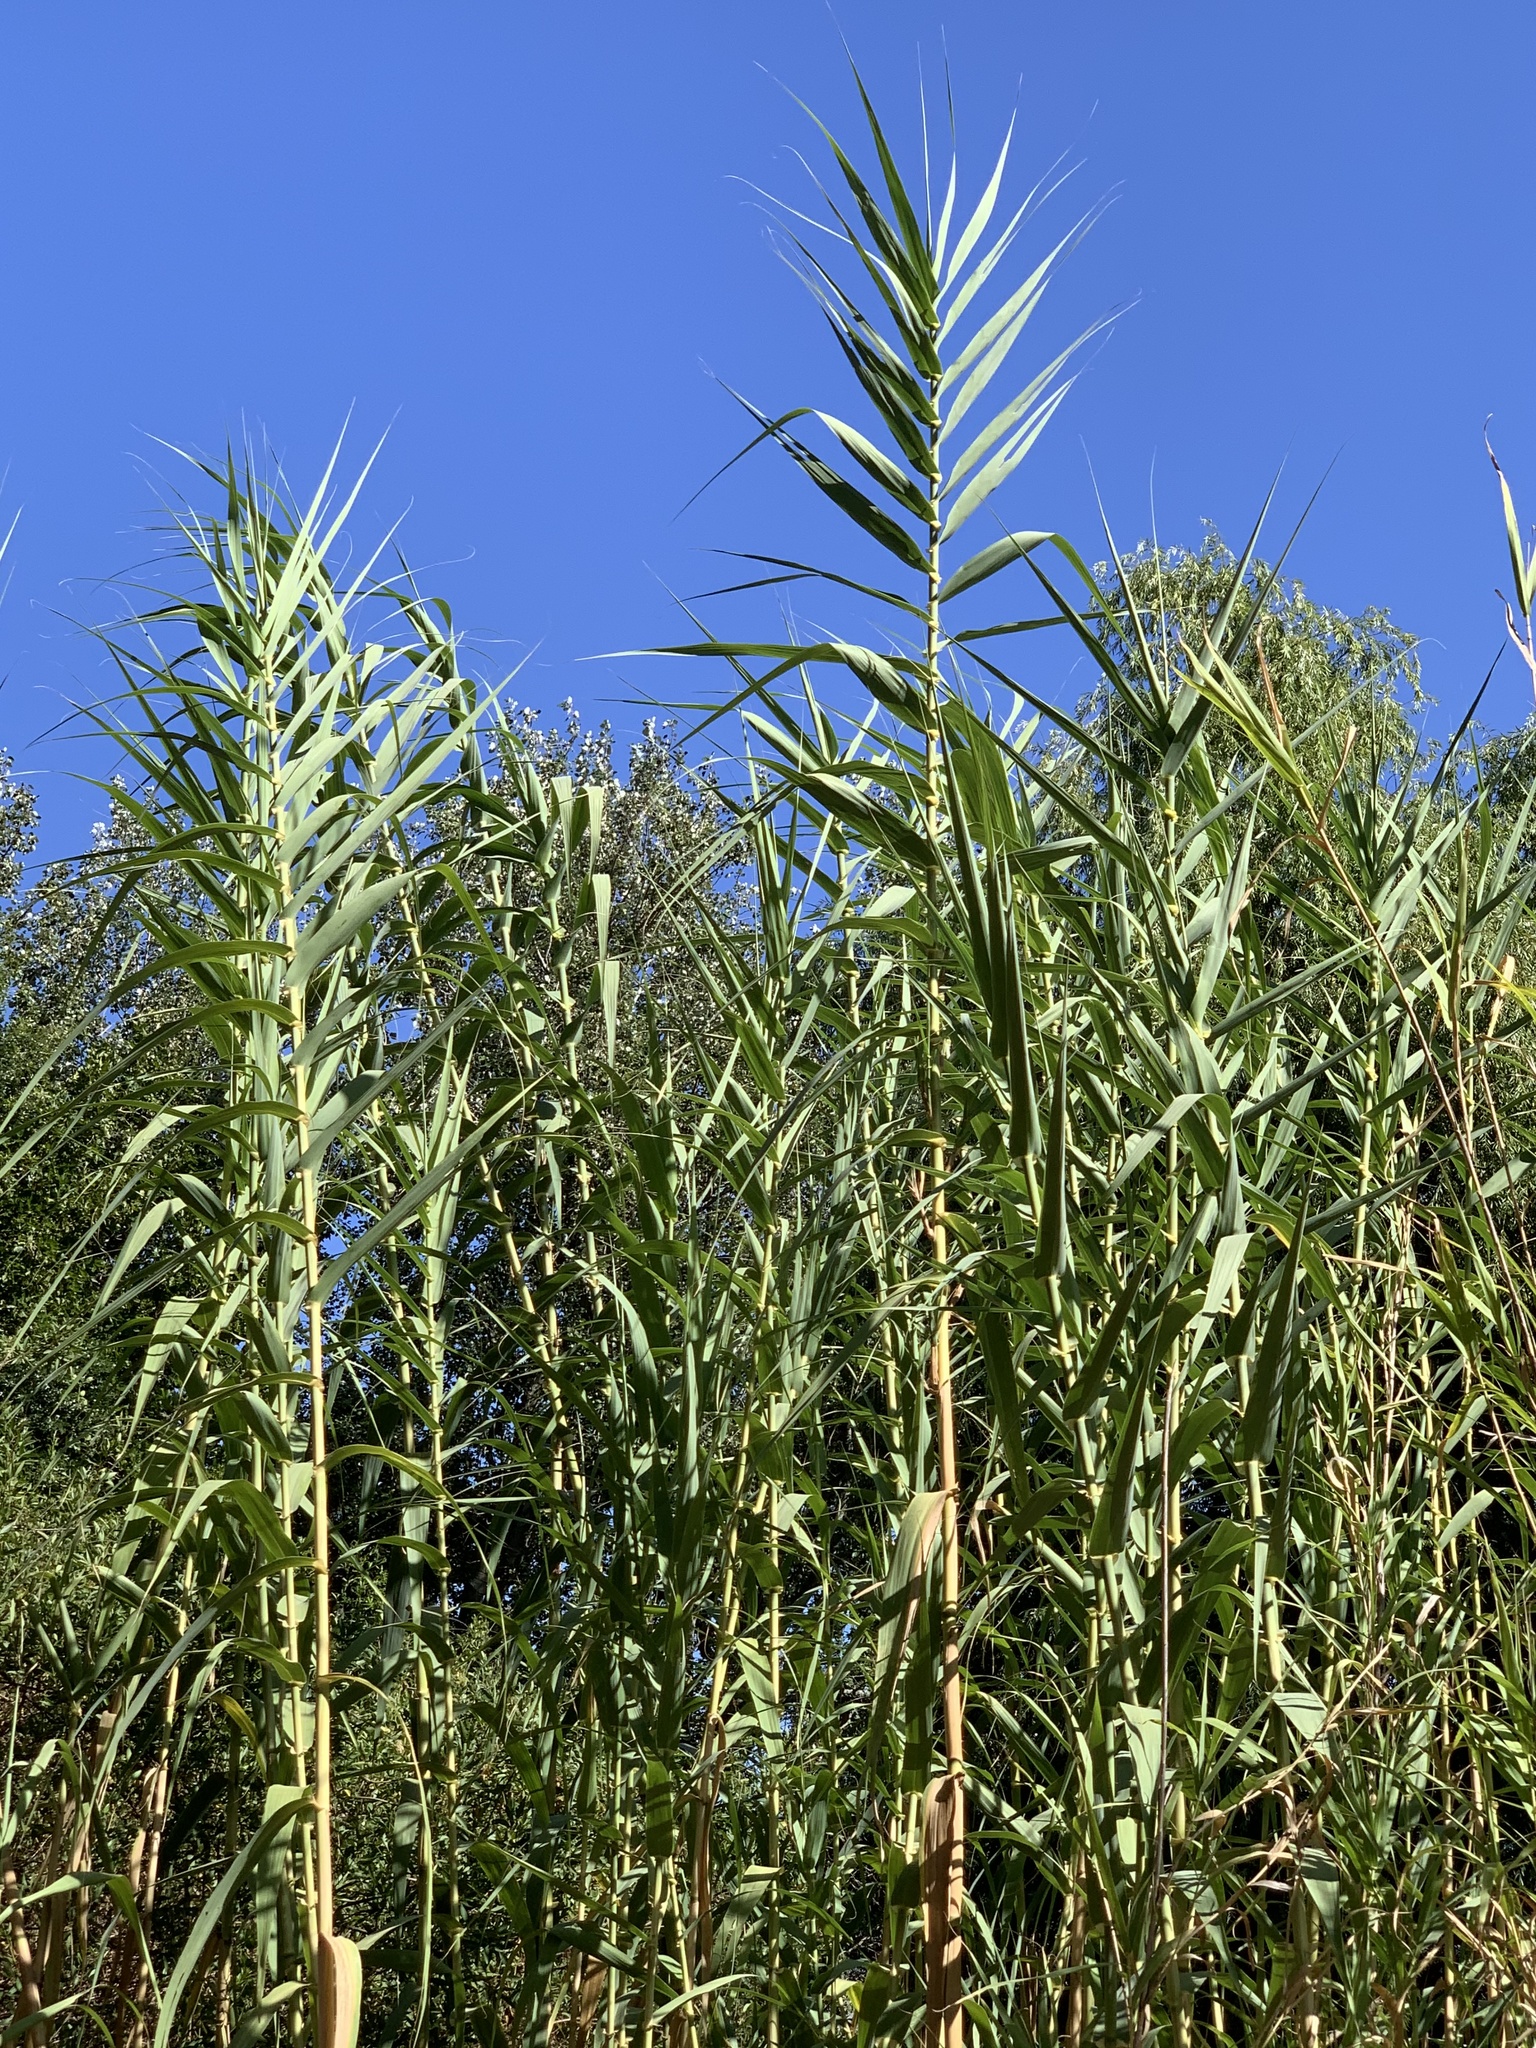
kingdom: Plantae
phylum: Tracheophyta
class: Liliopsida
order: Poales
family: Poaceae
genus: Arundo
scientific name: Arundo donax
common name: Giant reed
